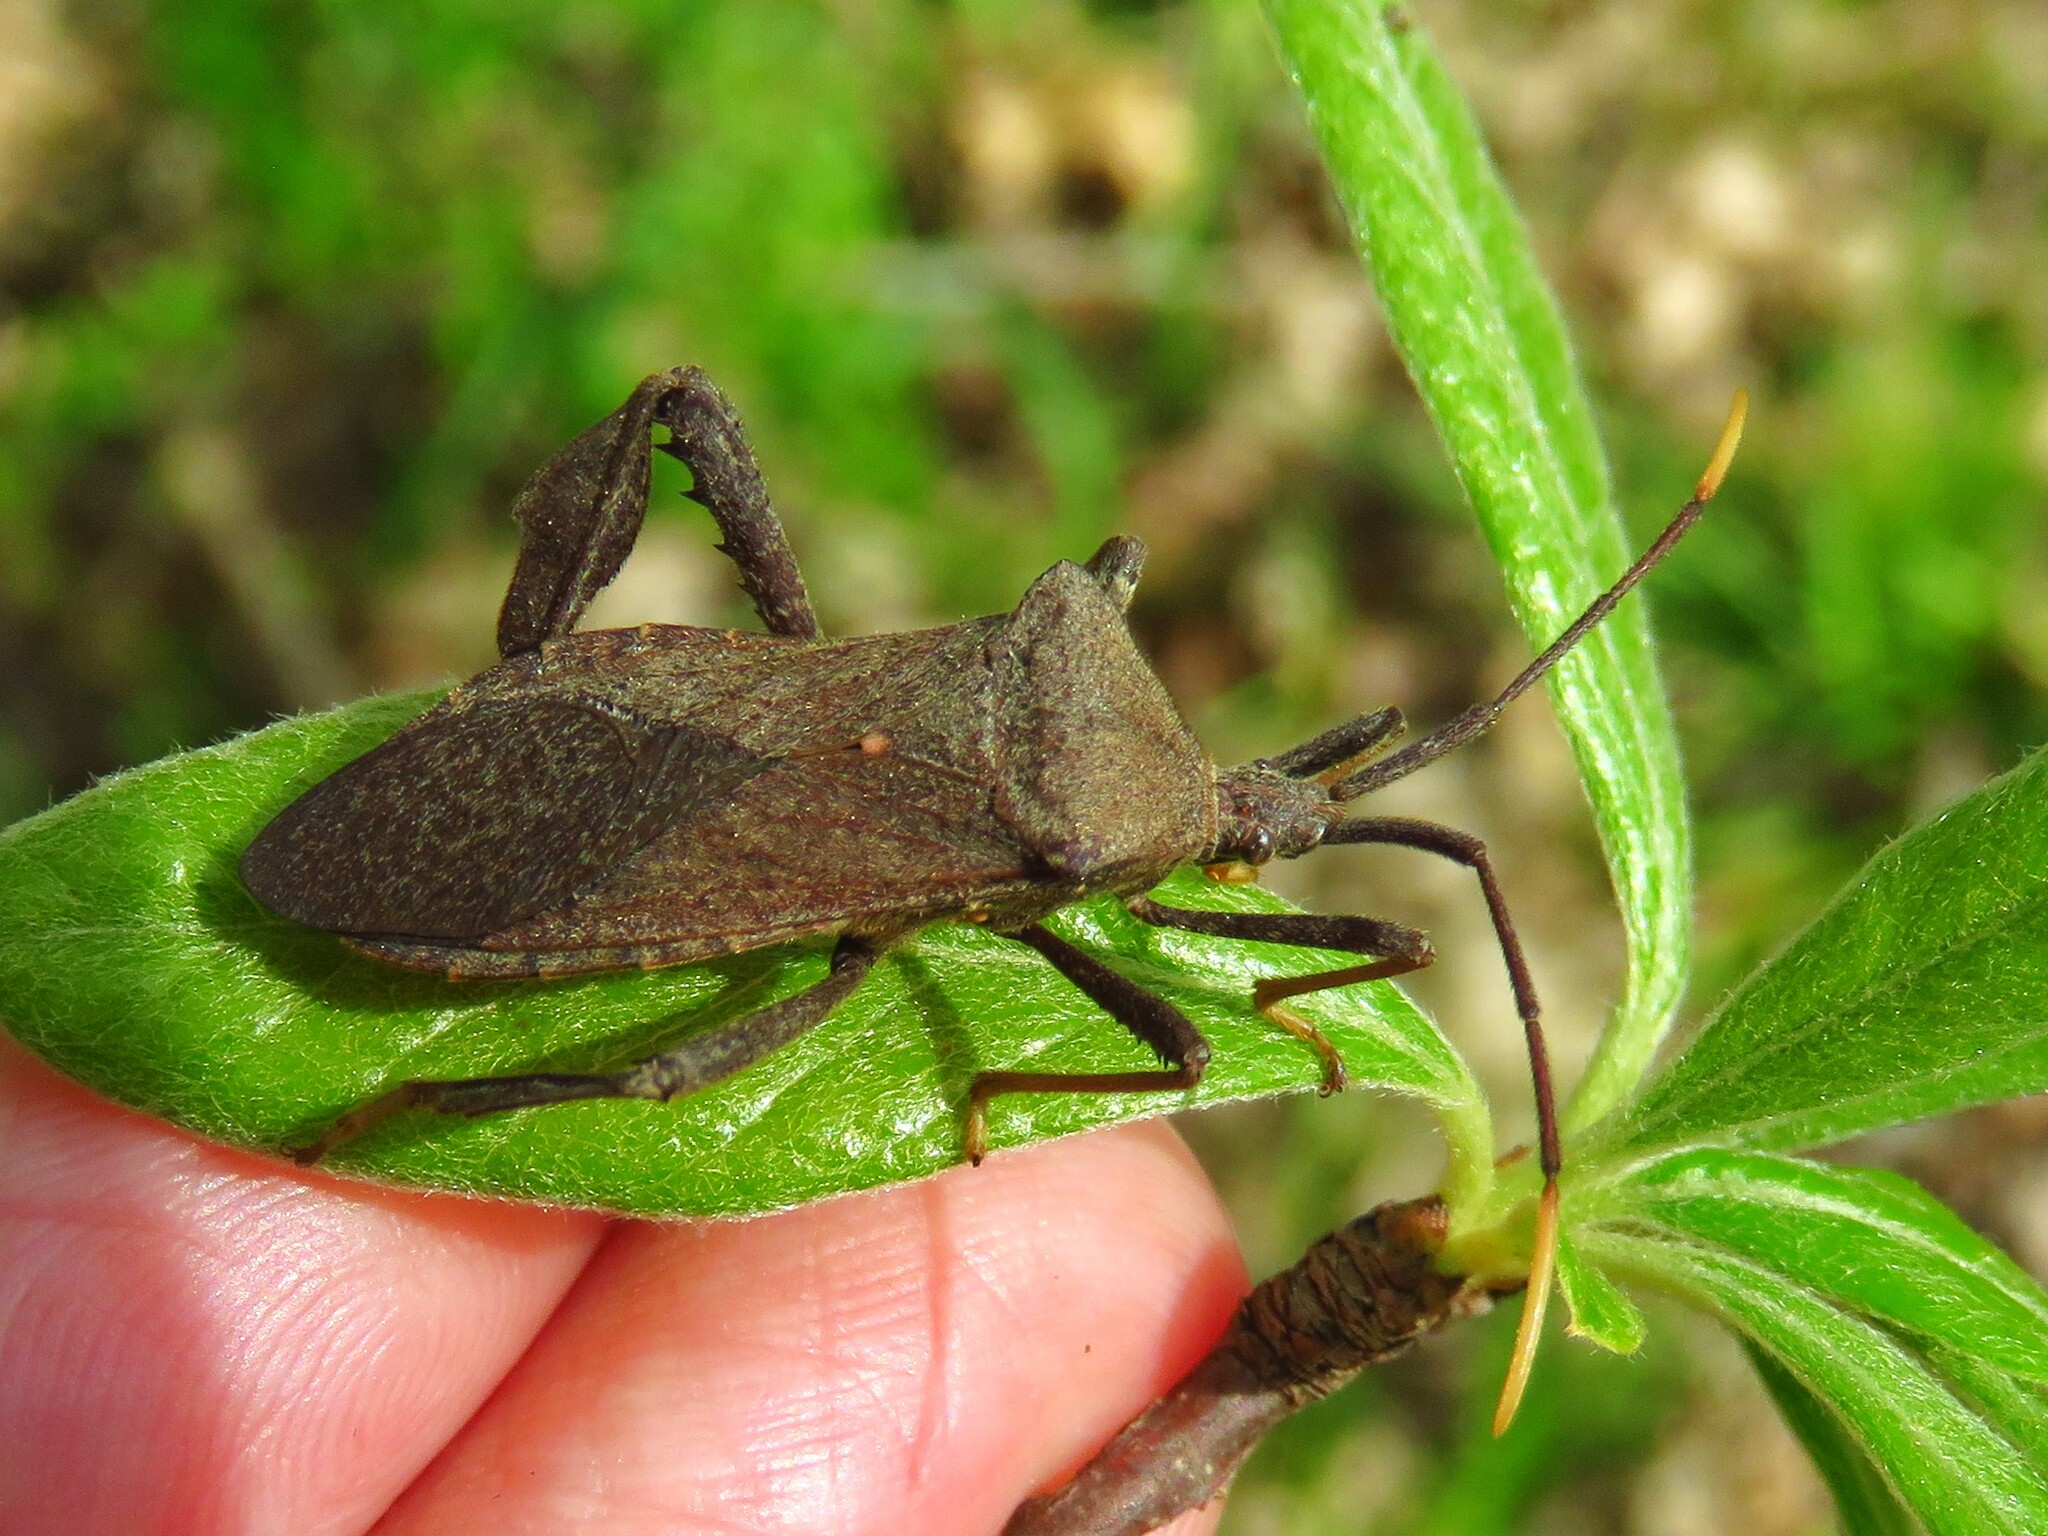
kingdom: Animalia
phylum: Arthropoda
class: Insecta
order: Hemiptera
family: Coreidae
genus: Acanthocephala
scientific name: Acanthocephala terminalis
